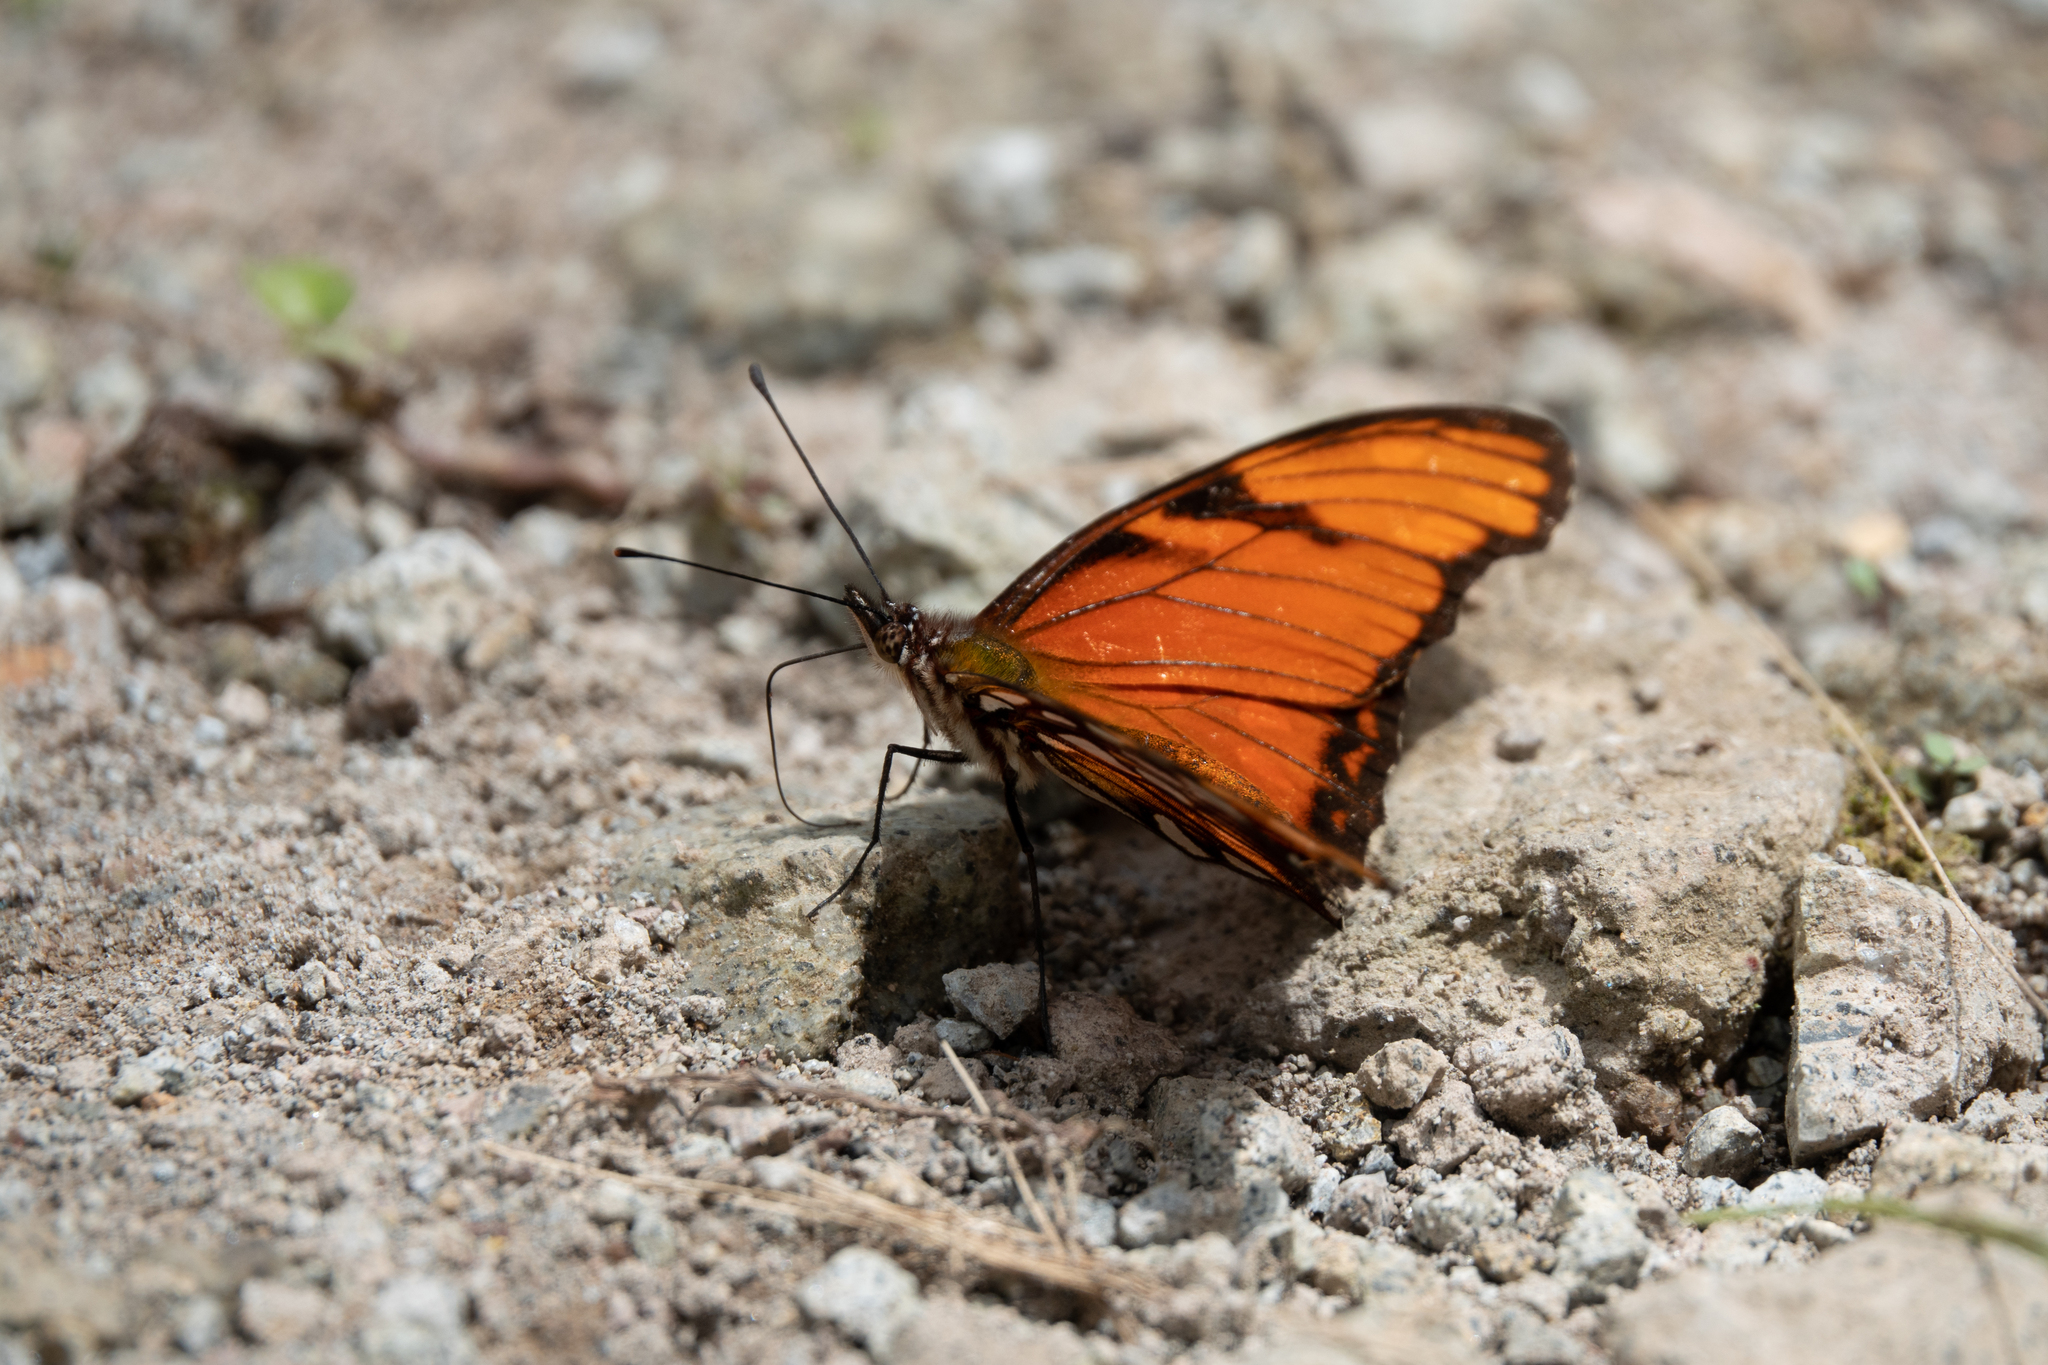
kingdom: Animalia
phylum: Arthropoda
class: Insecta
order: Lepidoptera
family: Nymphalidae
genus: Dione
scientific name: Dione juno
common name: Juno silverspot
